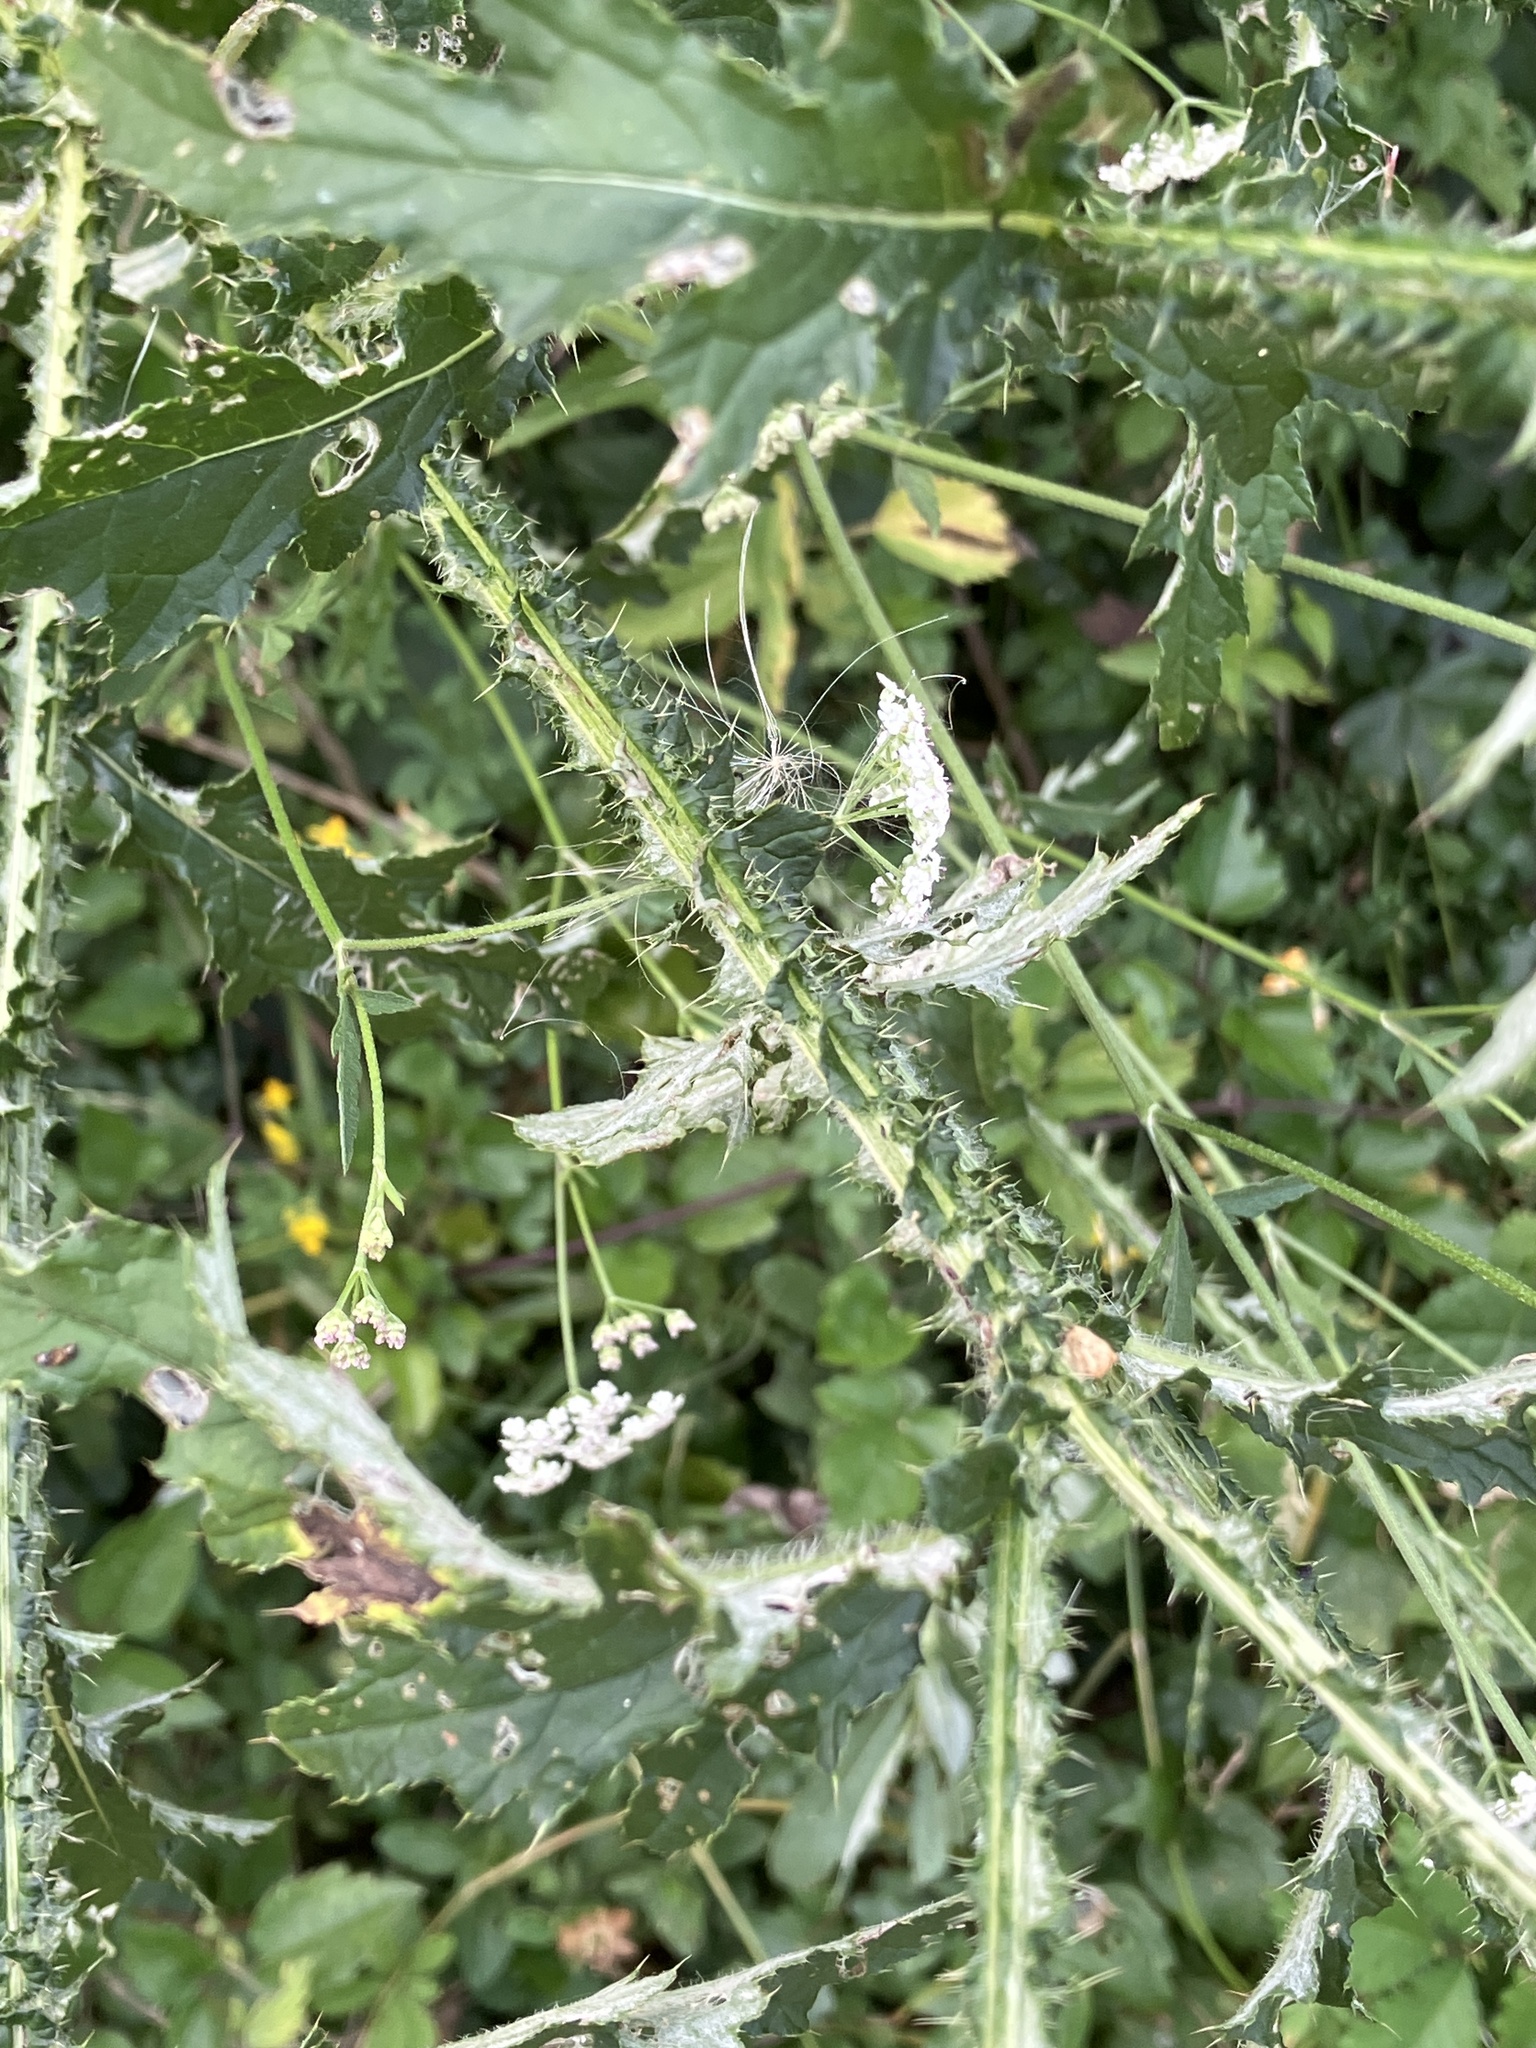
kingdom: Plantae
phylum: Tracheophyta
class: Magnoliopsida
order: Asterales
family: Asteraceae
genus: Carduus
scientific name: Carduus crispus
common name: Welted thistle
